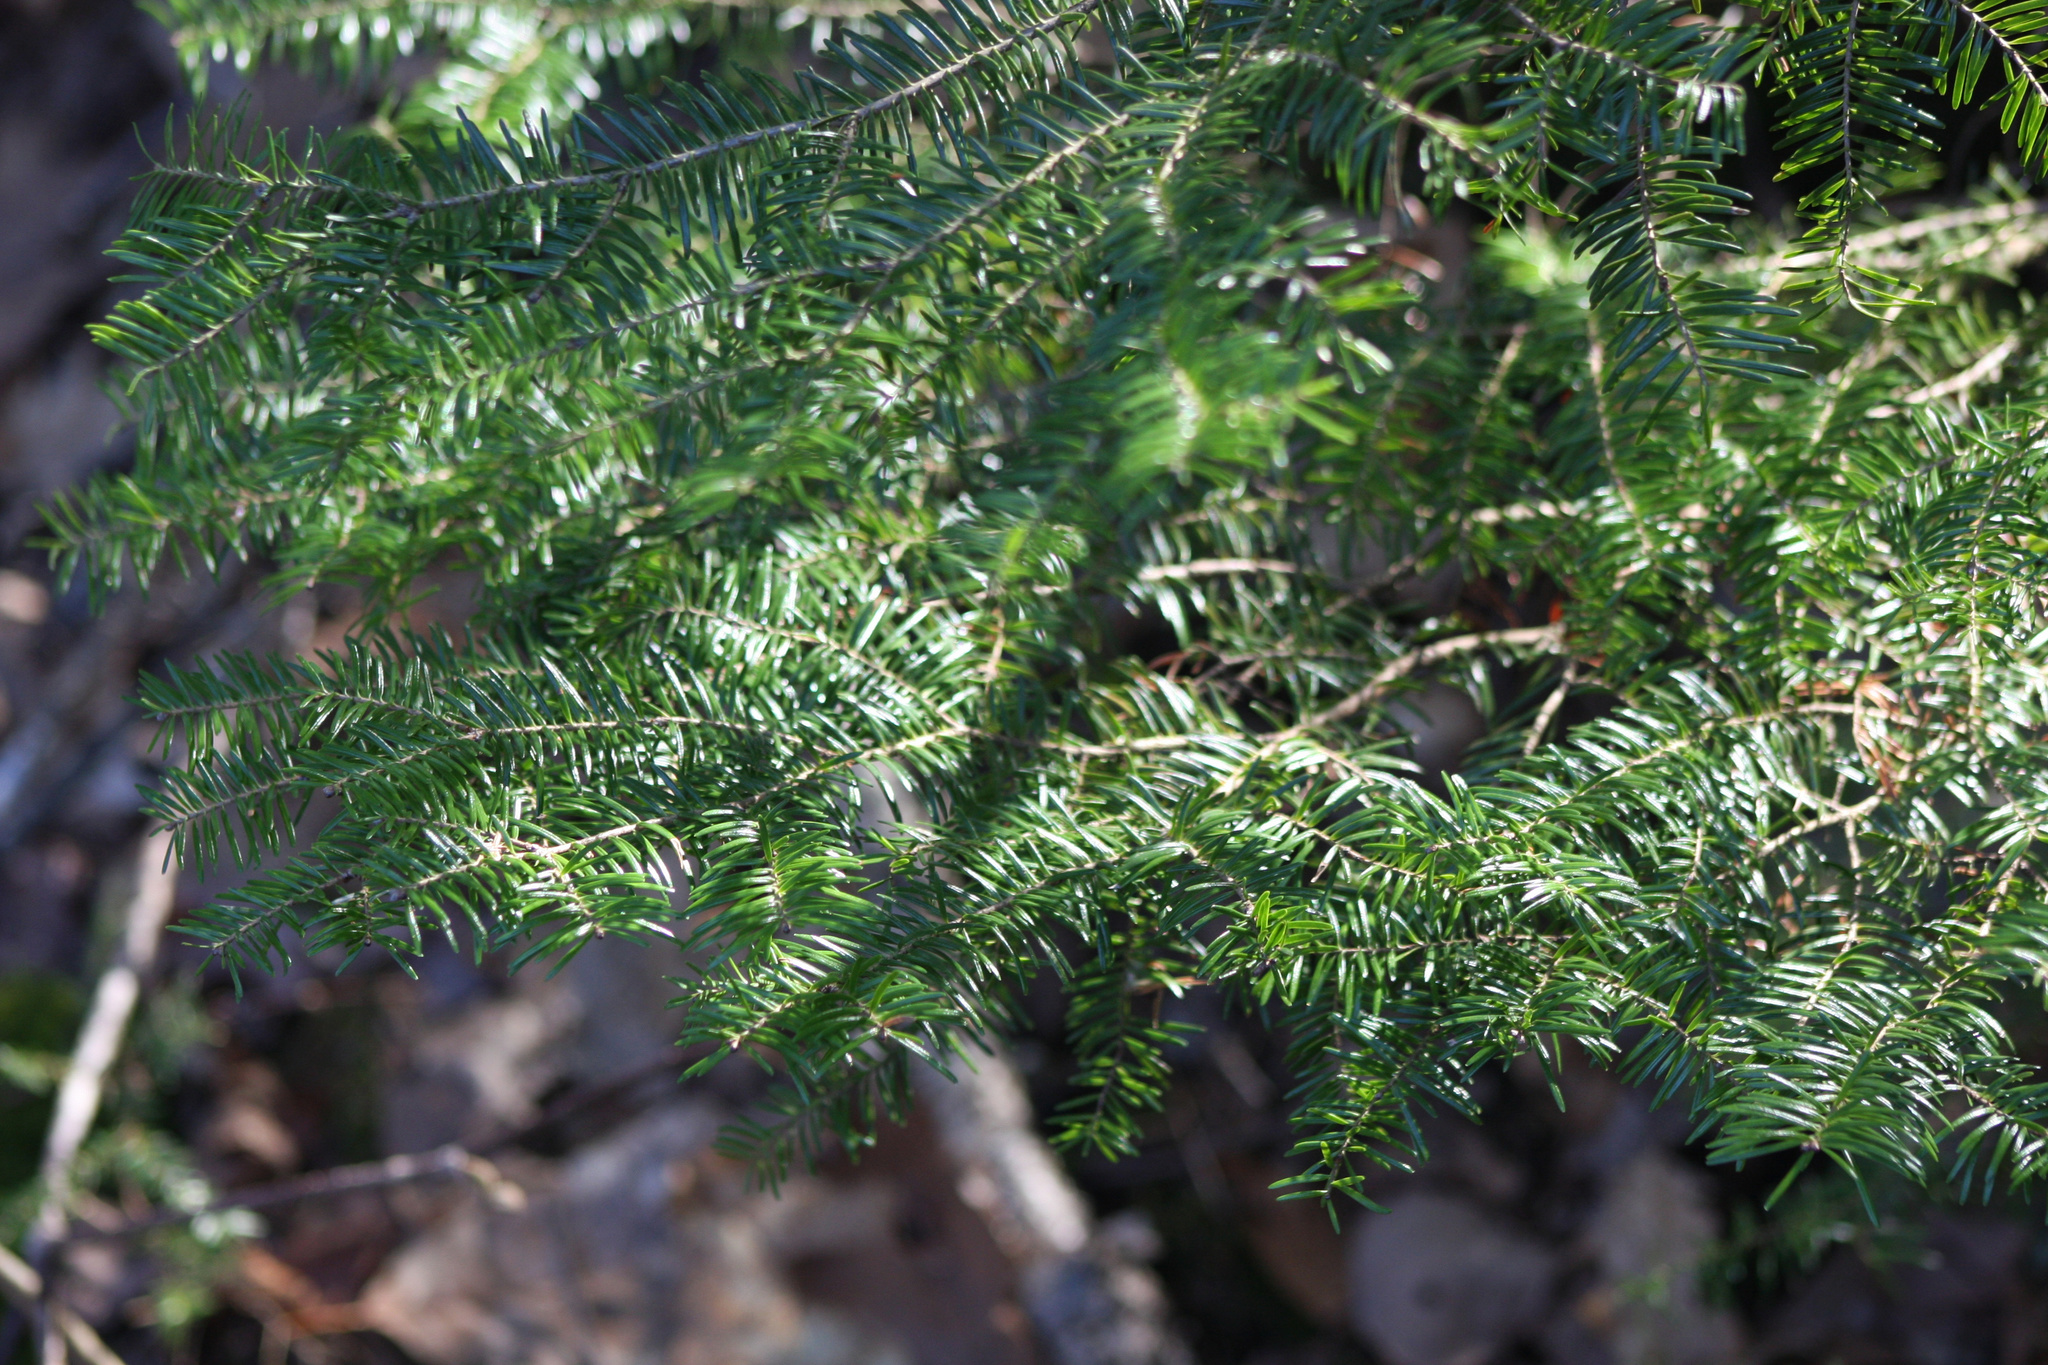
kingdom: Plantae
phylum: Tracheophyta
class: Pinopsida
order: Pinales
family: Pinaceae
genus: Abies
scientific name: Abies balsamea
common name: Balsam fir
